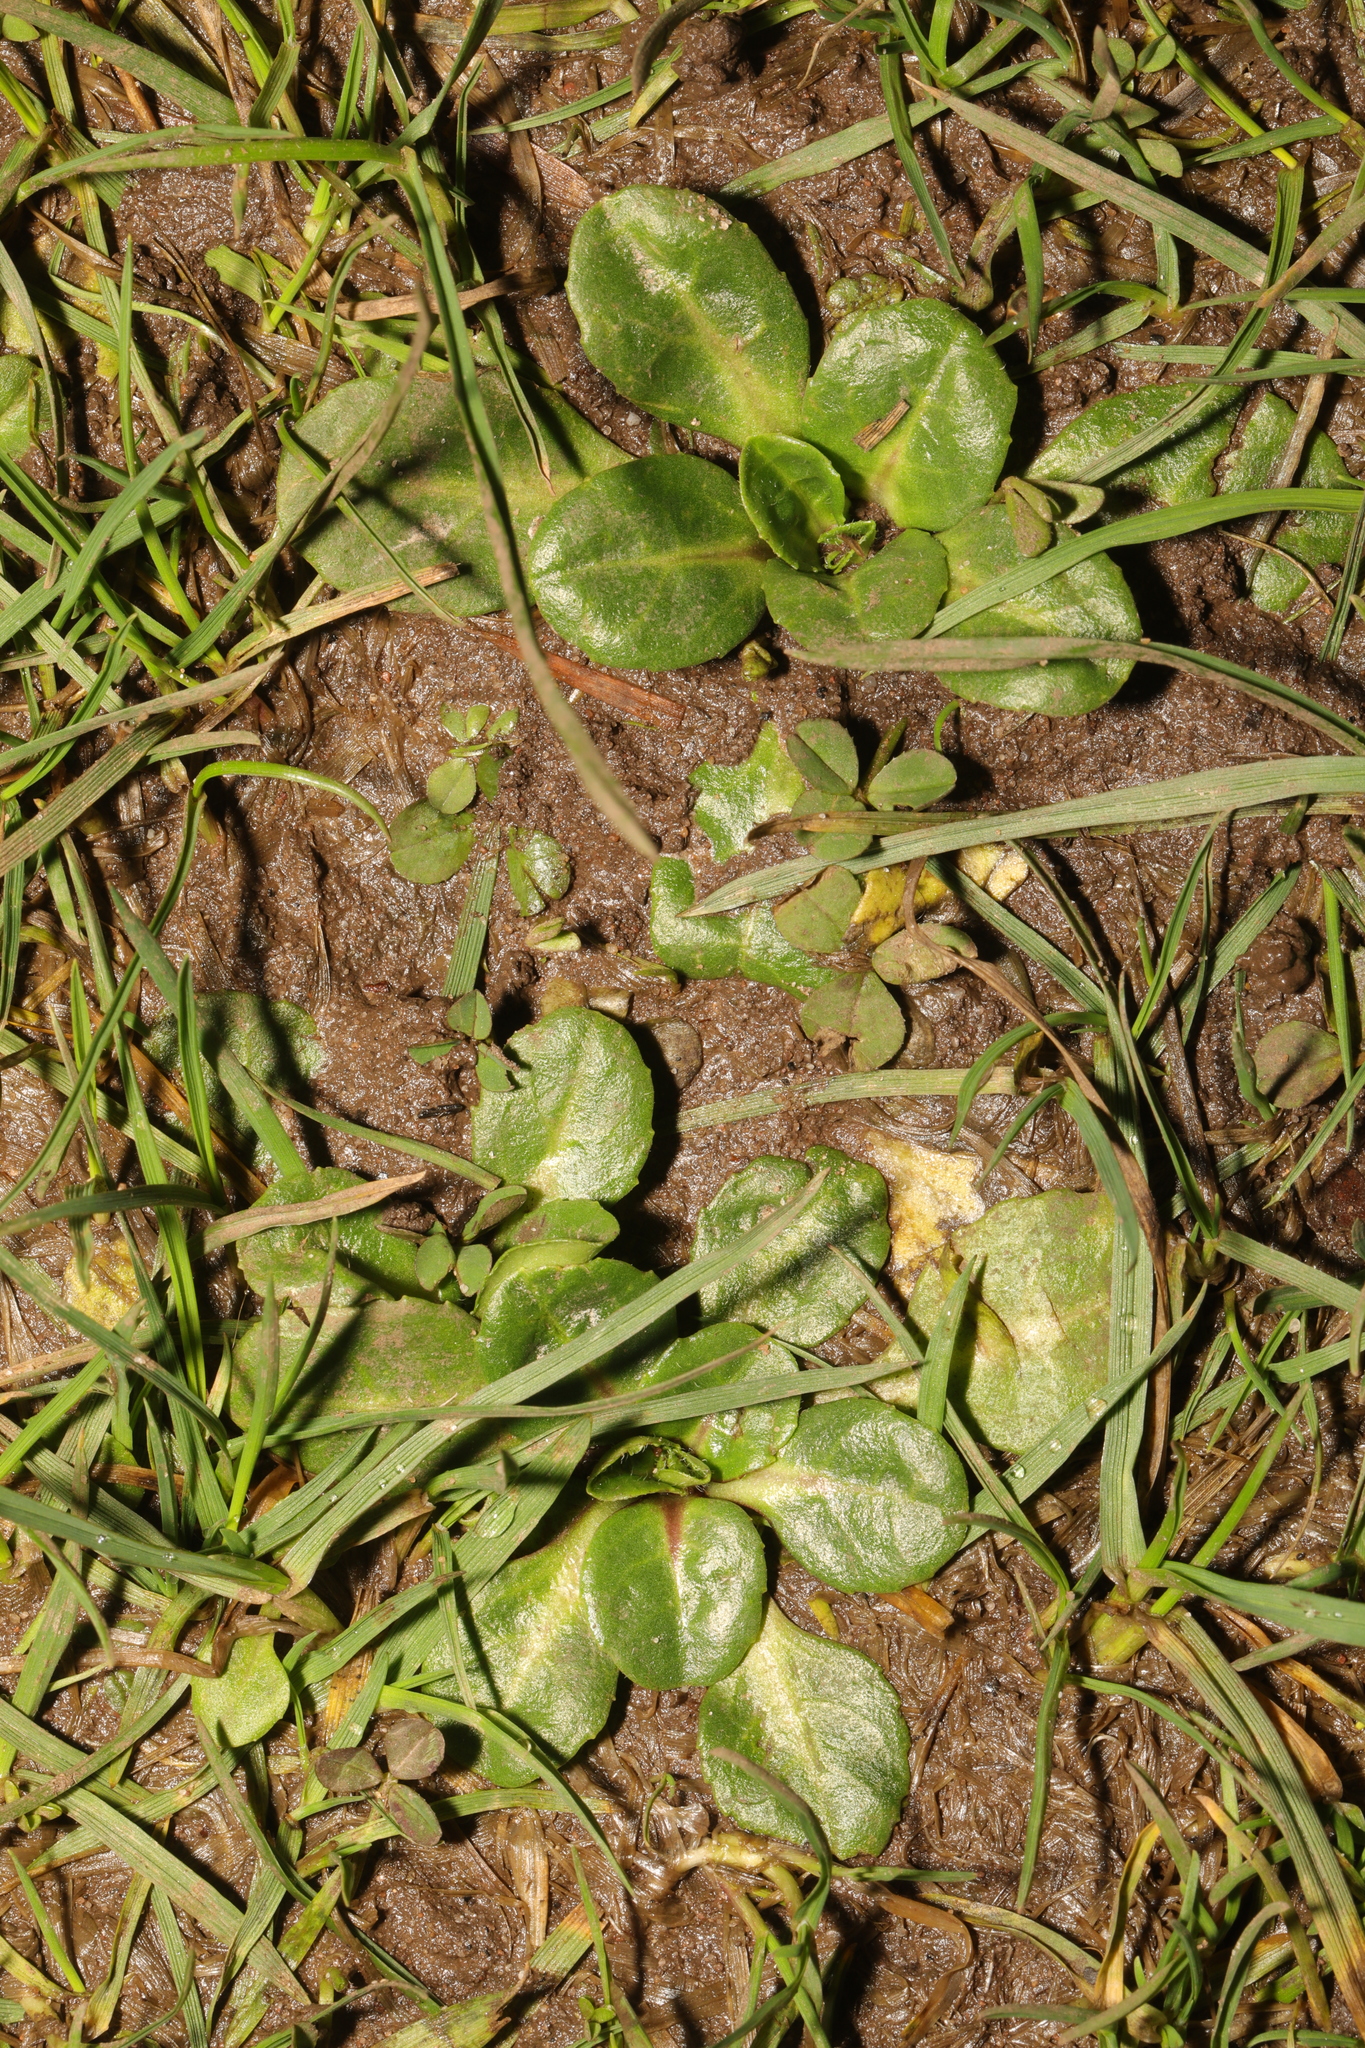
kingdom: Plantae
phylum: Tracheophyta
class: Magnoliopsida
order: Asterales
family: Asteraceae
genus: Bellis
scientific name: Bellis perennis
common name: Lawndaisy
